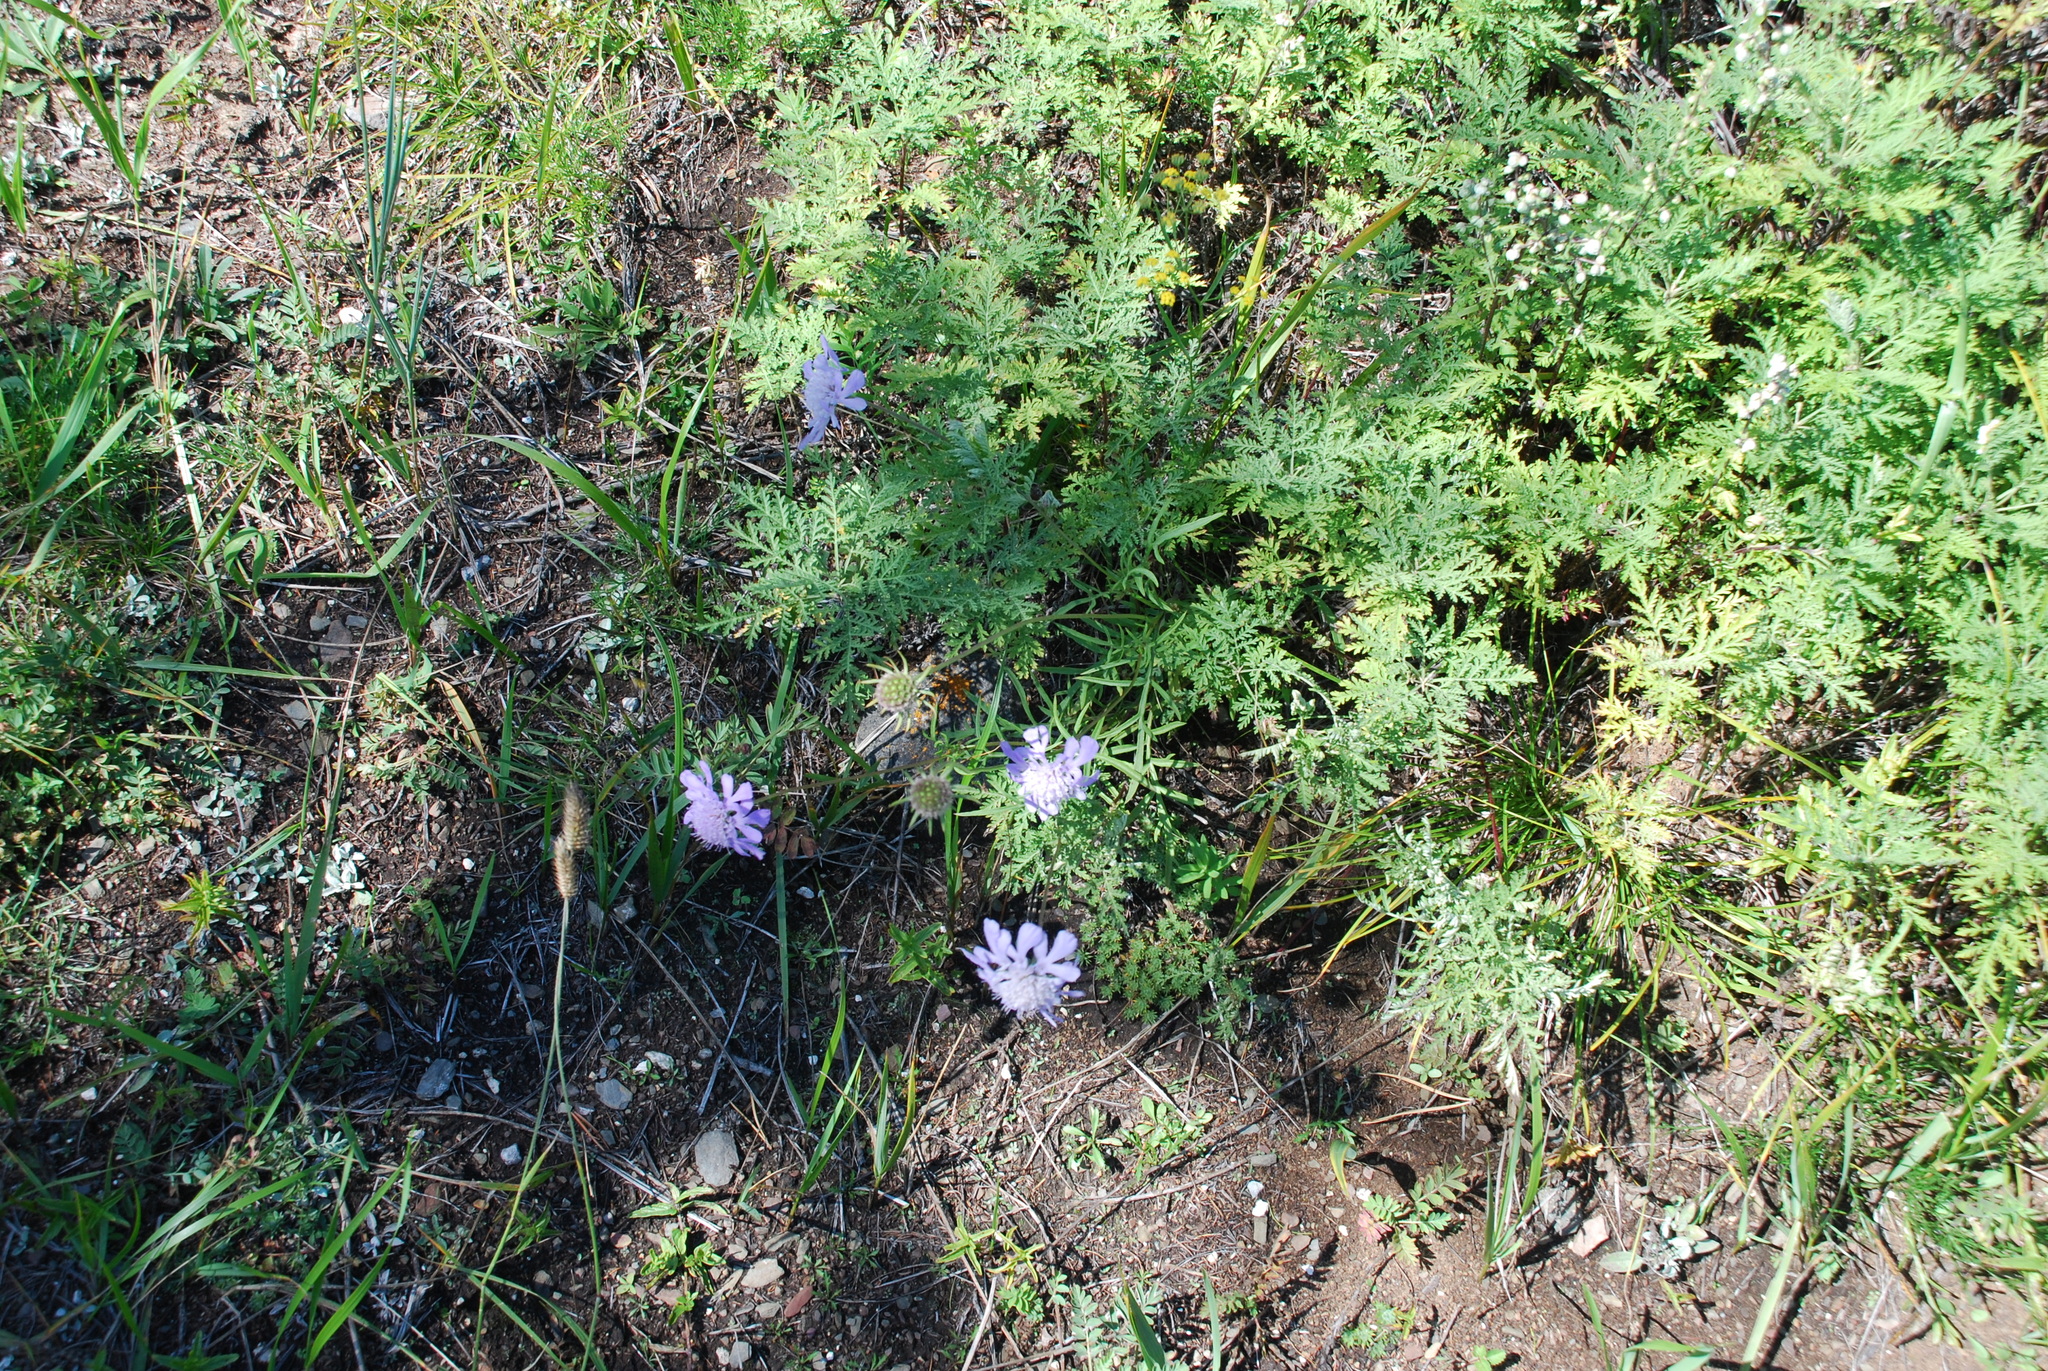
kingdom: Plantae
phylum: Tracheophyta
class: Magnoliopsida
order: Dipsacales
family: Caprifoliaceae
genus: Scabiosa
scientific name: Scabiosa comosa
